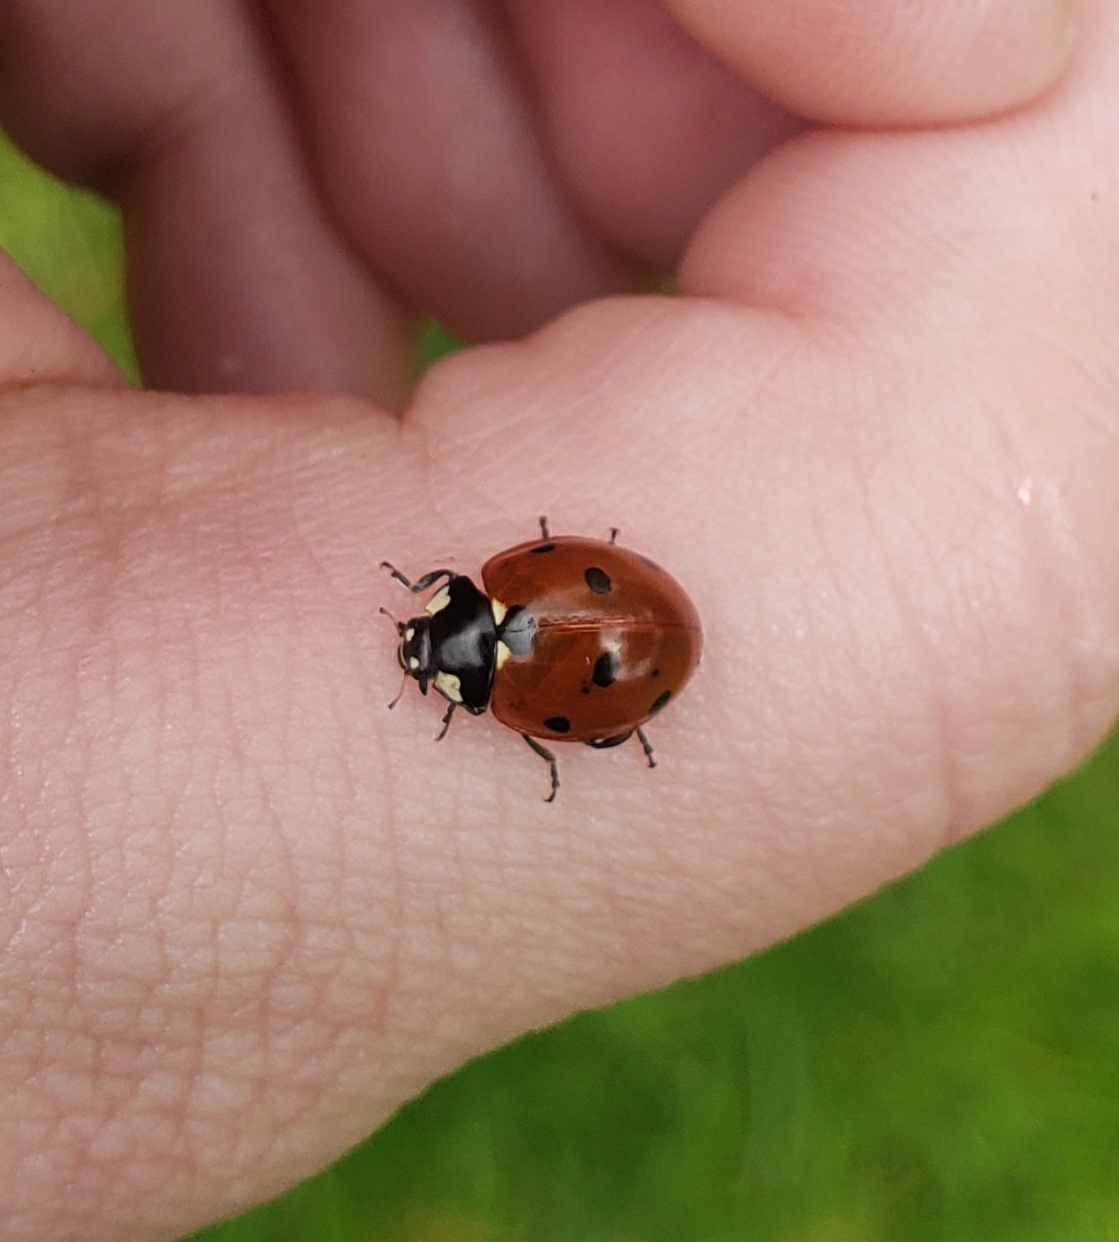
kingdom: Animalia
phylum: Arthropoda
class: Insecta
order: Coleoptera
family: Coccinellidae
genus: Coccinella
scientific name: Coccinella septempunctata
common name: Sevenspotted lady beetle
